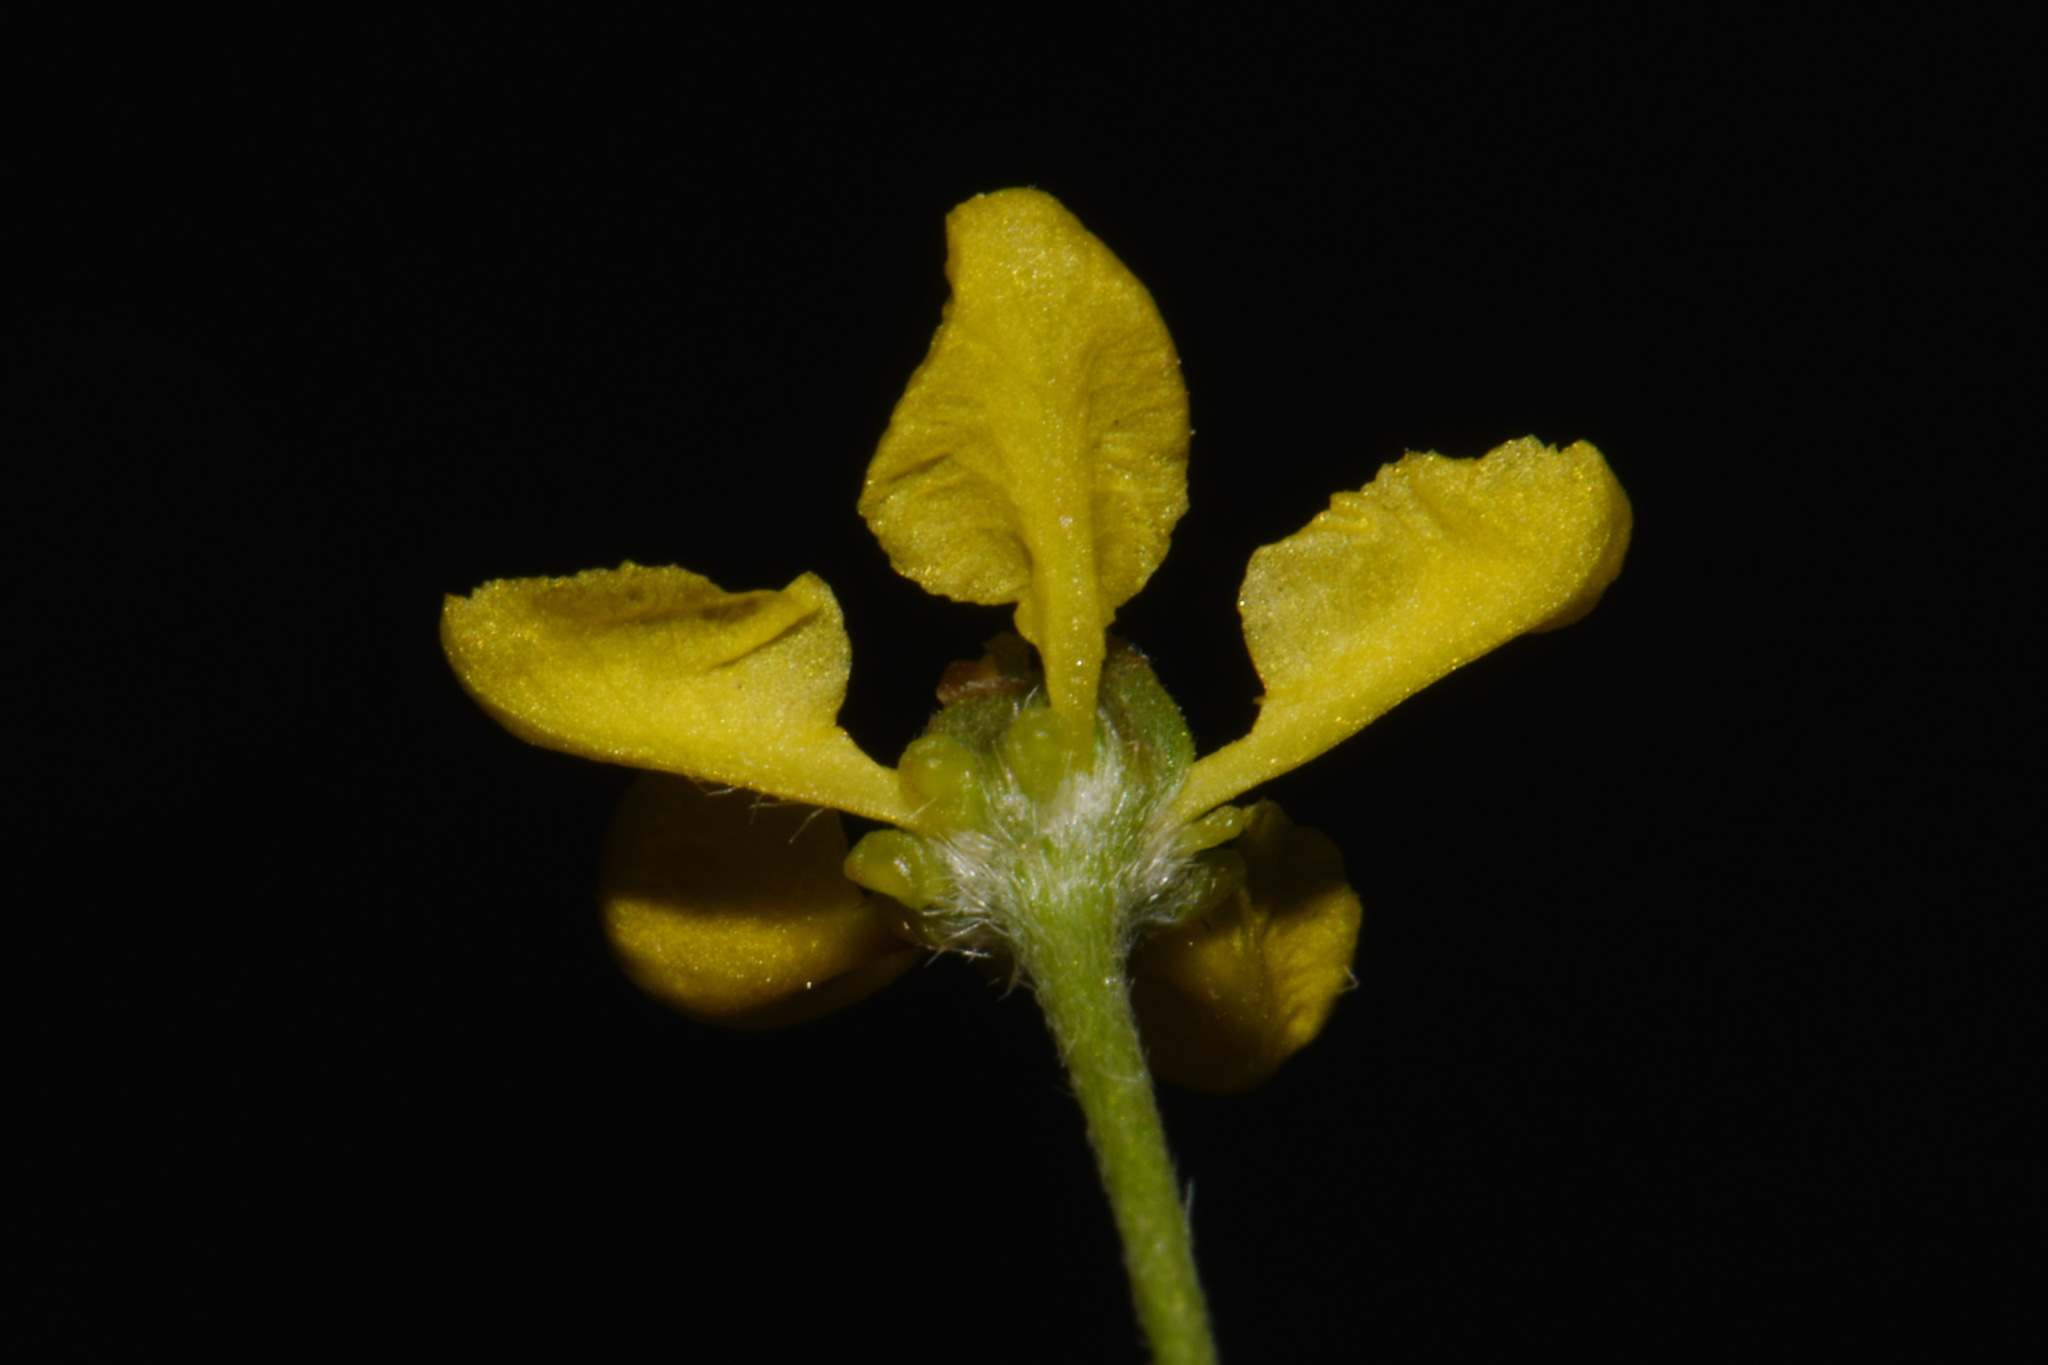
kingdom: Plantae
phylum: Tracheophyta
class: Magnoliopsida
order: Malpighiales
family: Malpighiaceae
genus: Cottsia
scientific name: Cottsia gracilis
